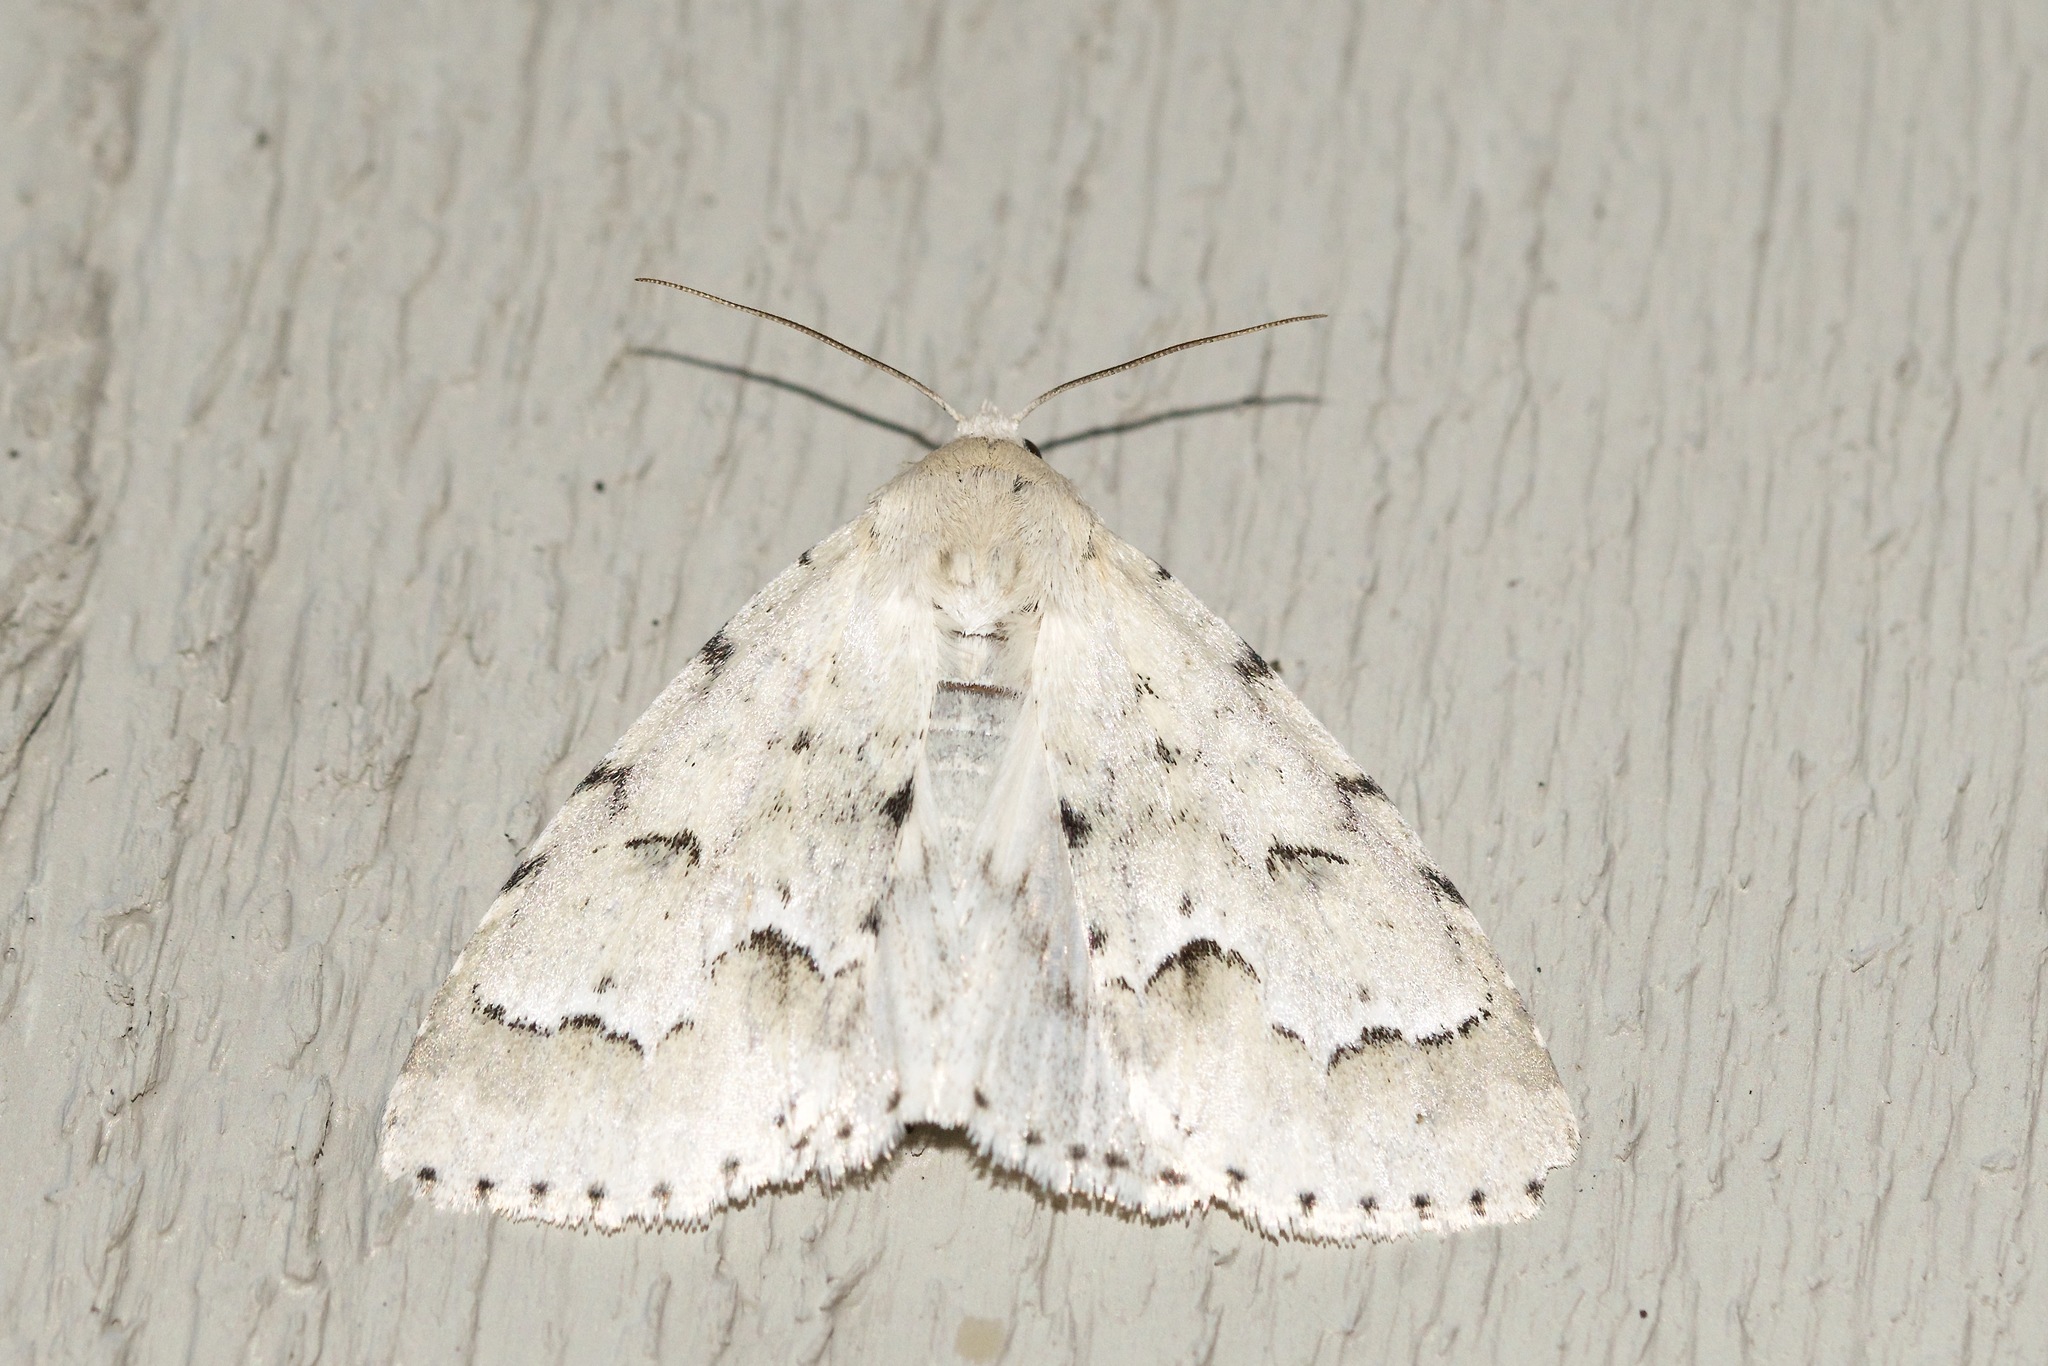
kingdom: Animalia
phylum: Arthropoda
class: Insecta
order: Lepidoptera
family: Noctuidae
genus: Acronicta
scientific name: Acronicta innotata
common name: Unmarked dagger
